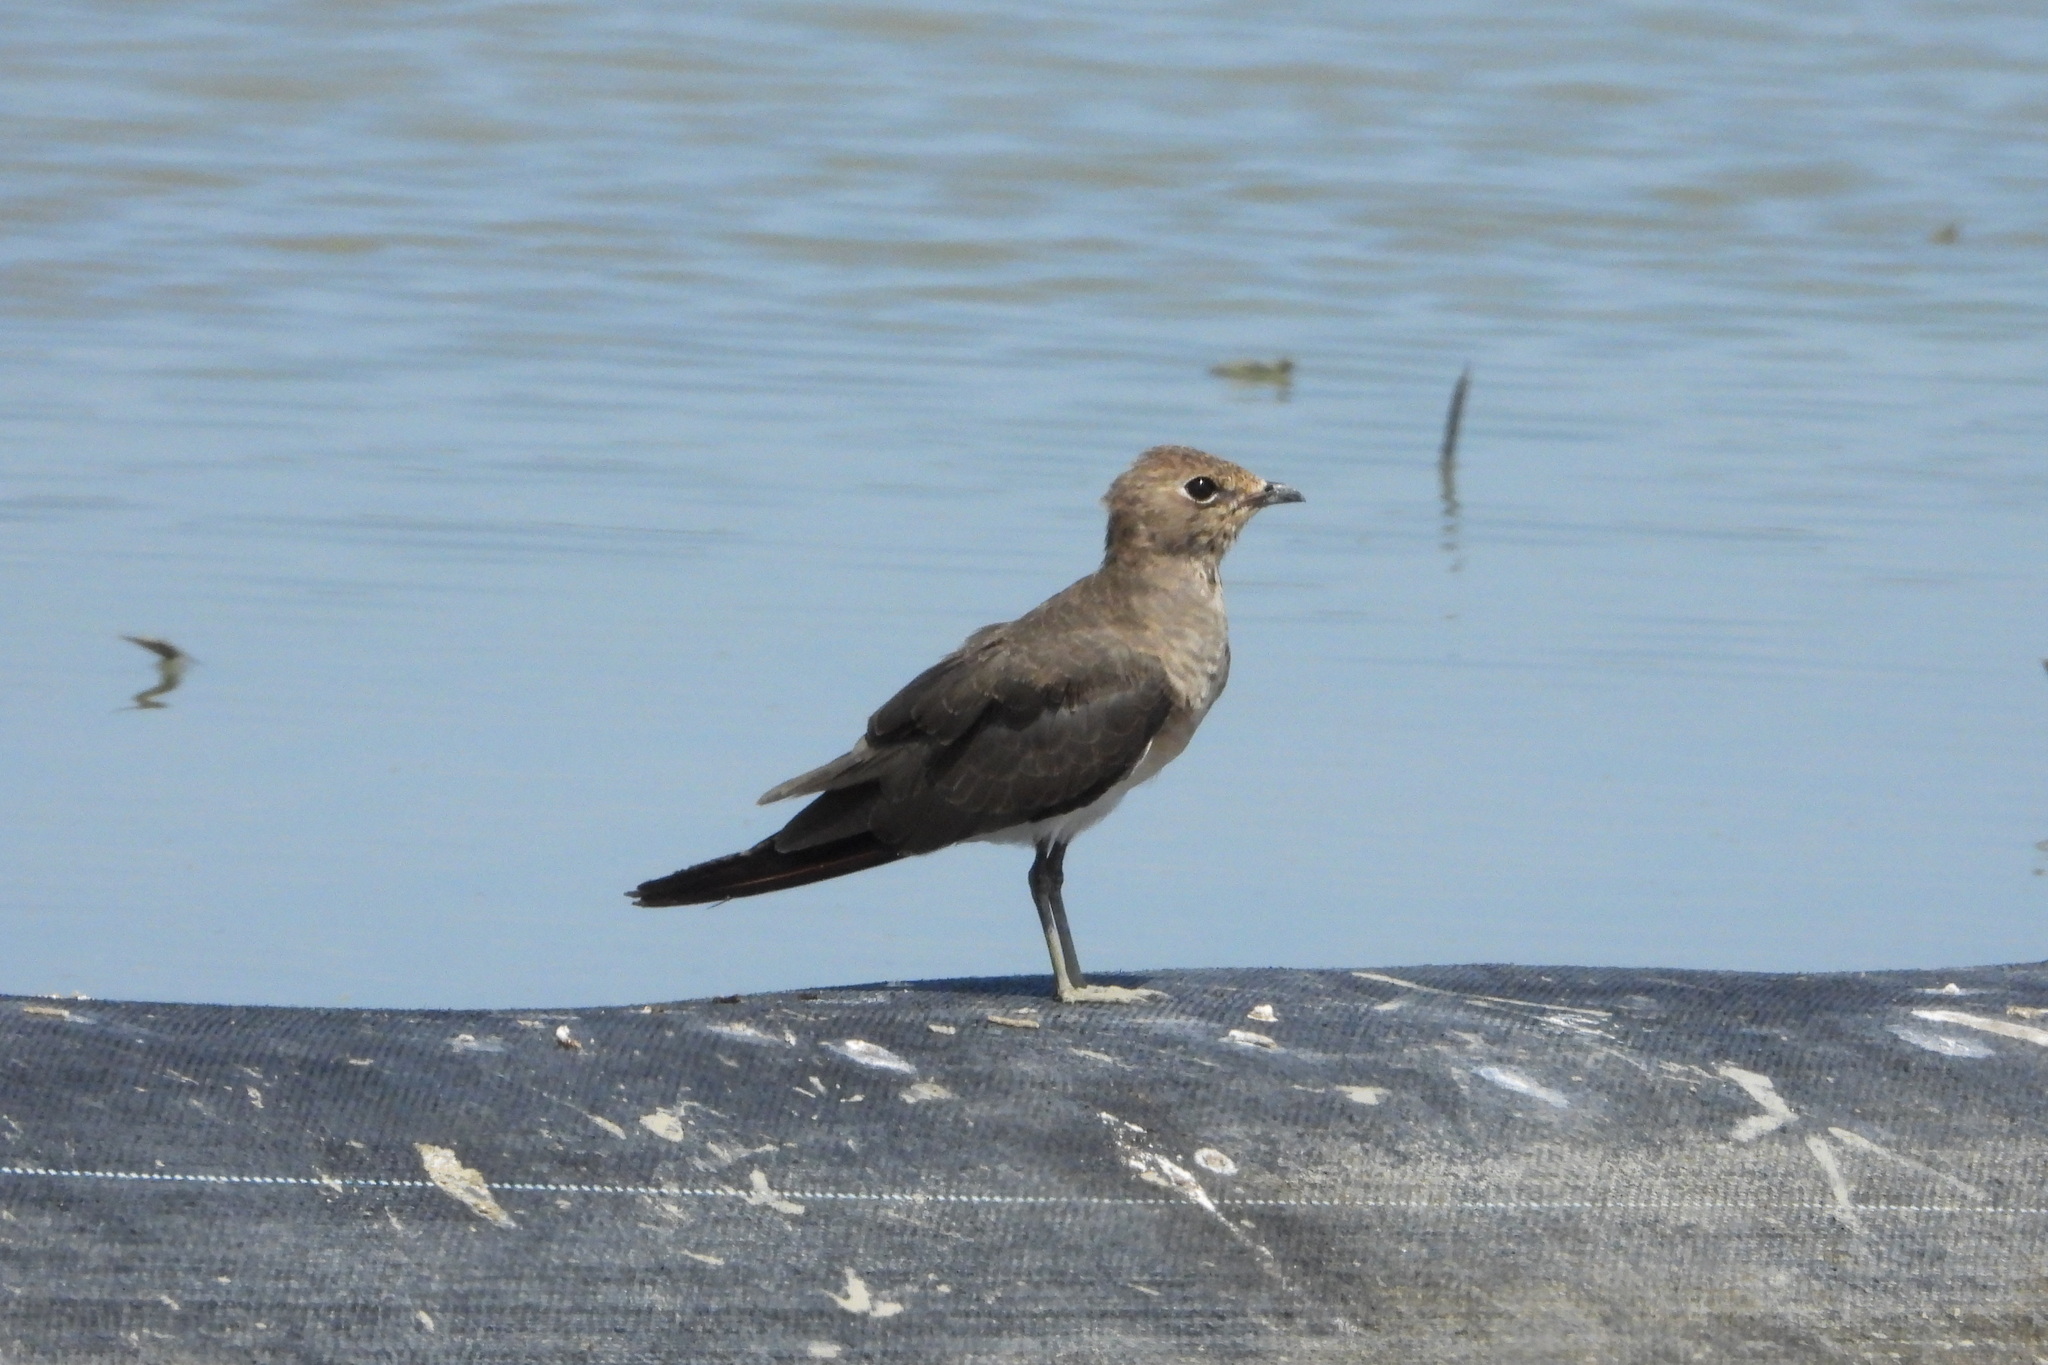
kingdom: Animalia
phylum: Chordata
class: Aves
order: Charadriiformes
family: Glareolidae
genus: Glareola
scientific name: Glareola maldivarum
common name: Oriental pratincole
